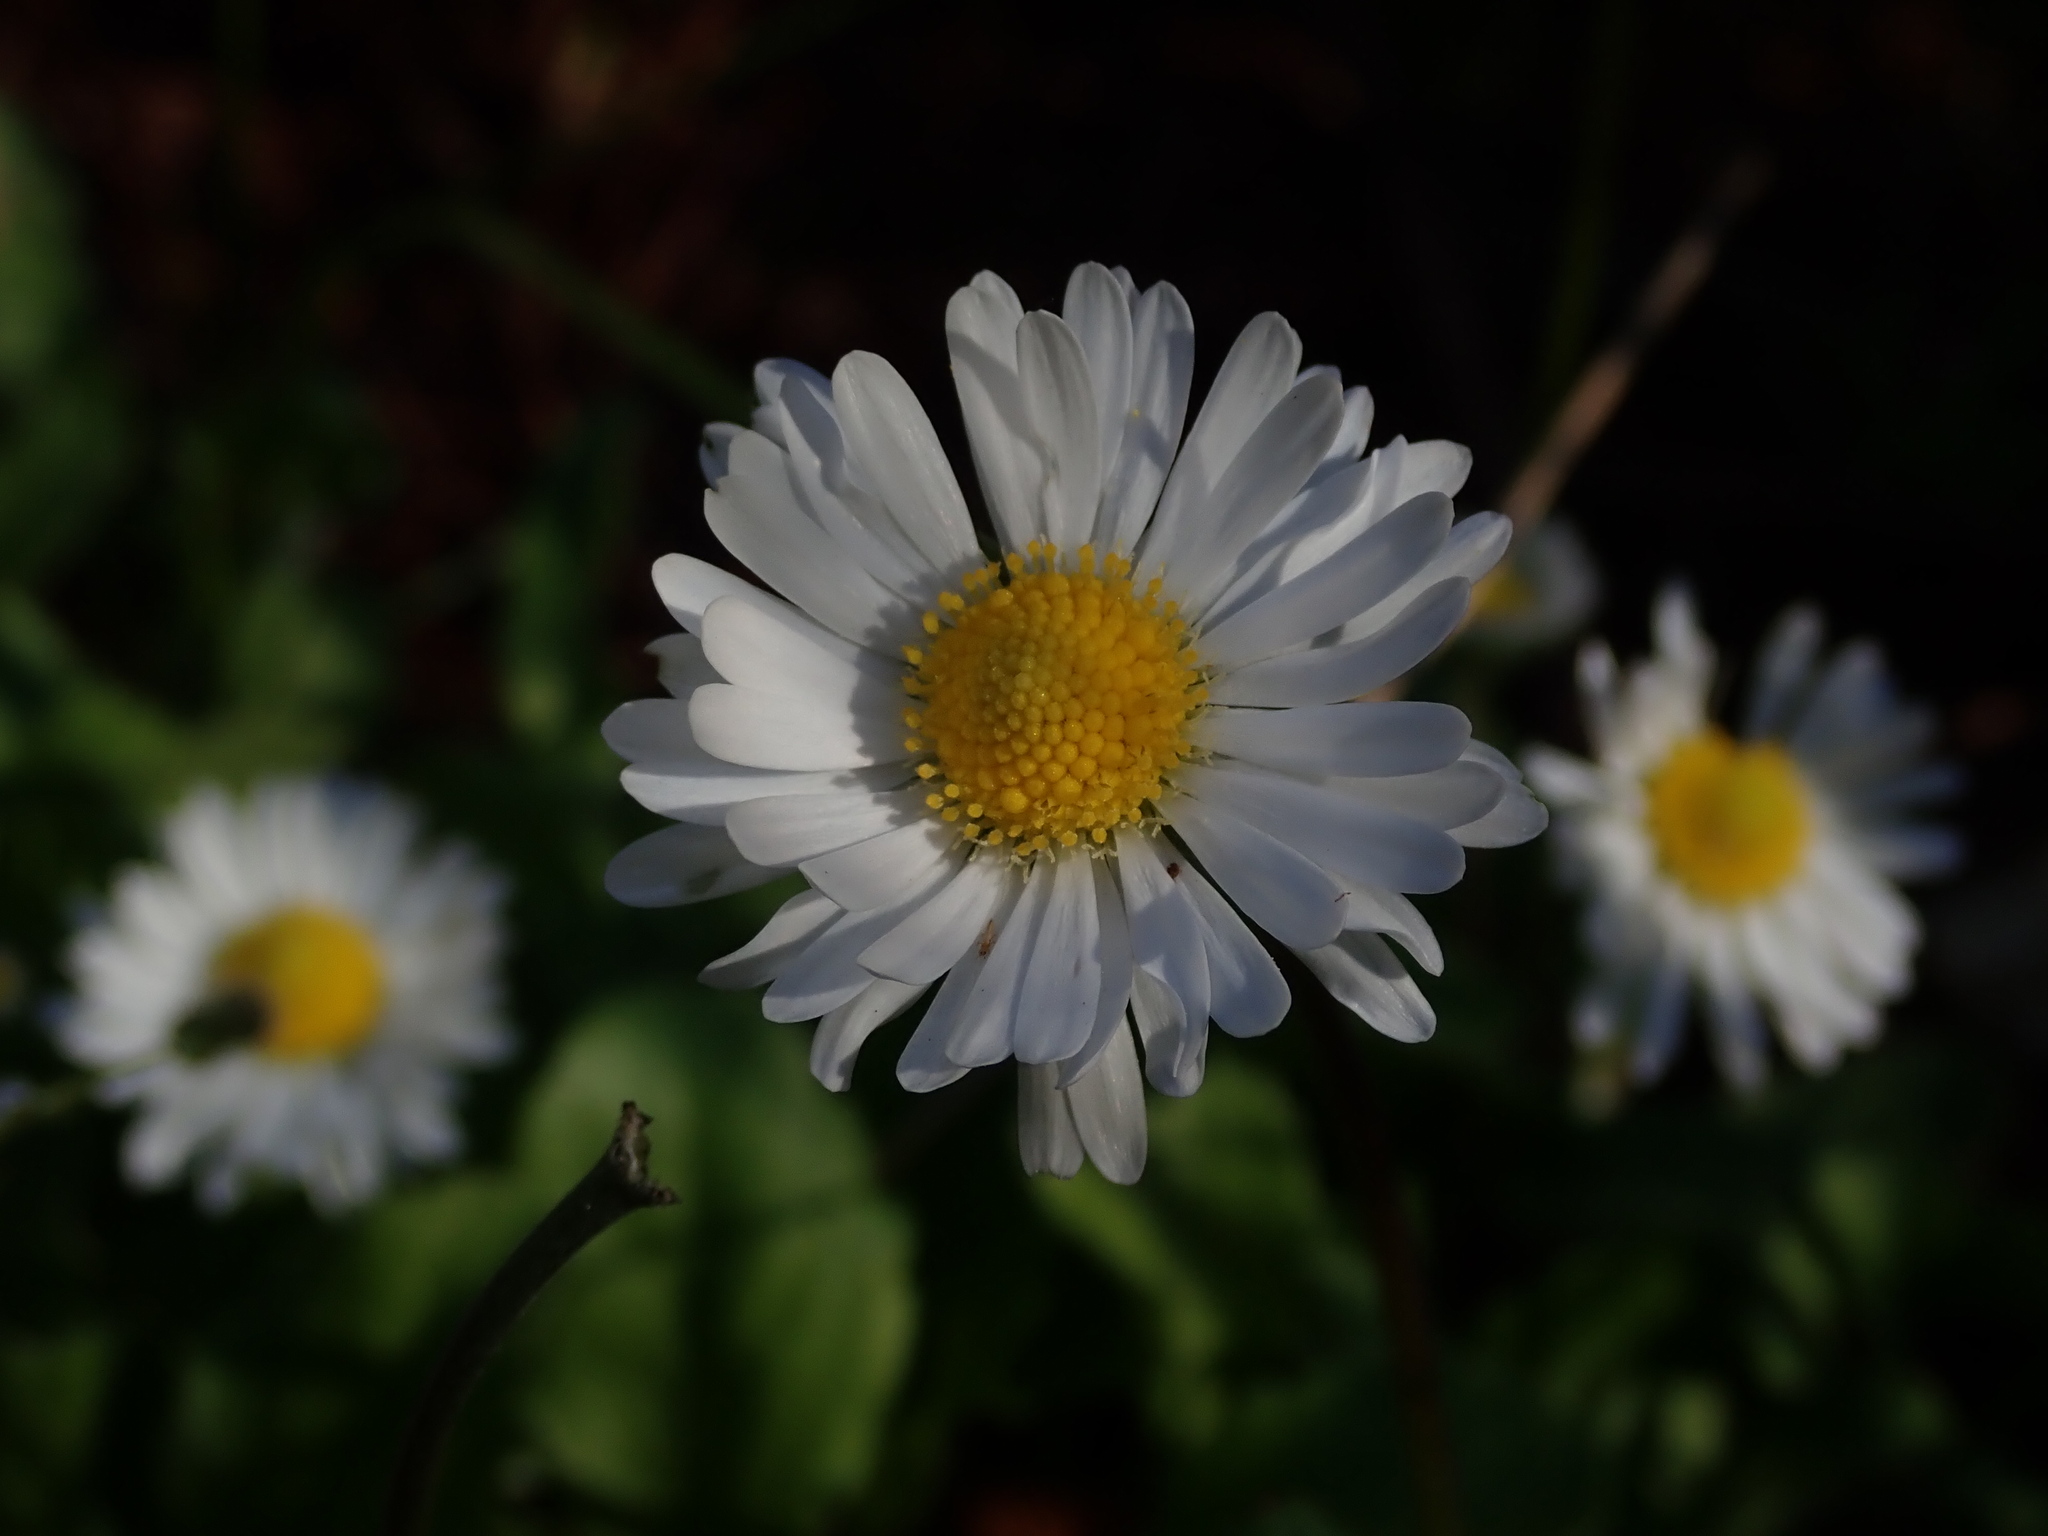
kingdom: Plantae
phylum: Tracheophyta
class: Magnoliopsida
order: Asterales
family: Asteraceae
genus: Bellis
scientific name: Bellis perennis
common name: Lawndaisy
